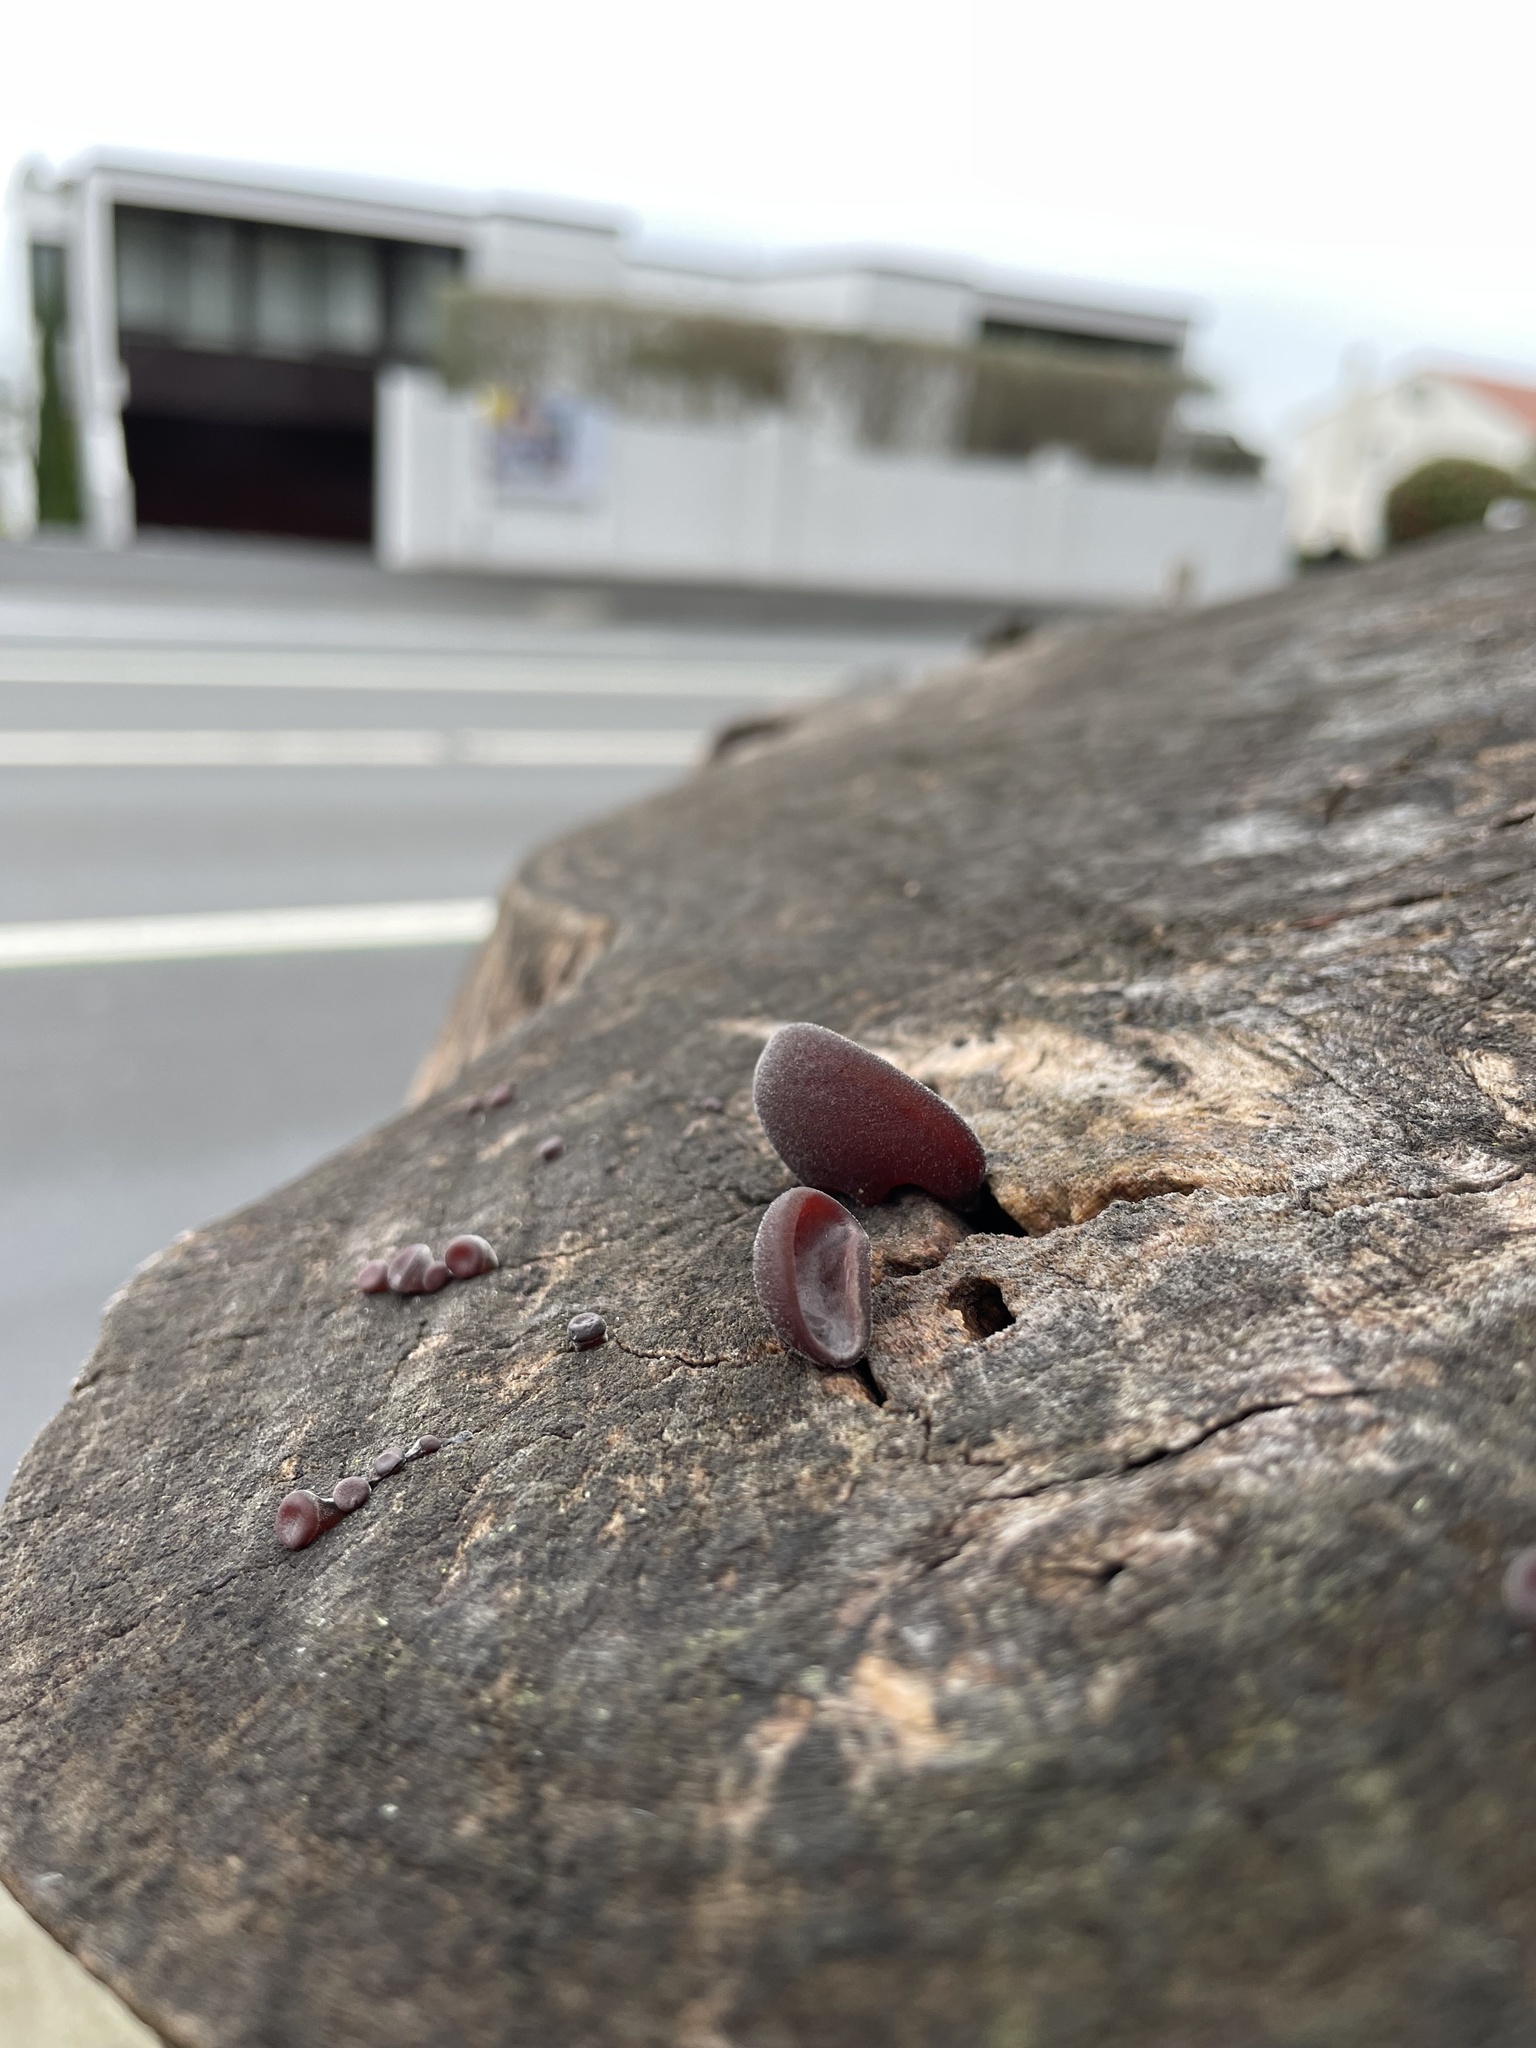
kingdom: Fungi
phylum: Basidiomycota
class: Agaricomycetes
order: Auriculariales
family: Auriculariaceae
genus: Auricularia
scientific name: Auricularia cornea
